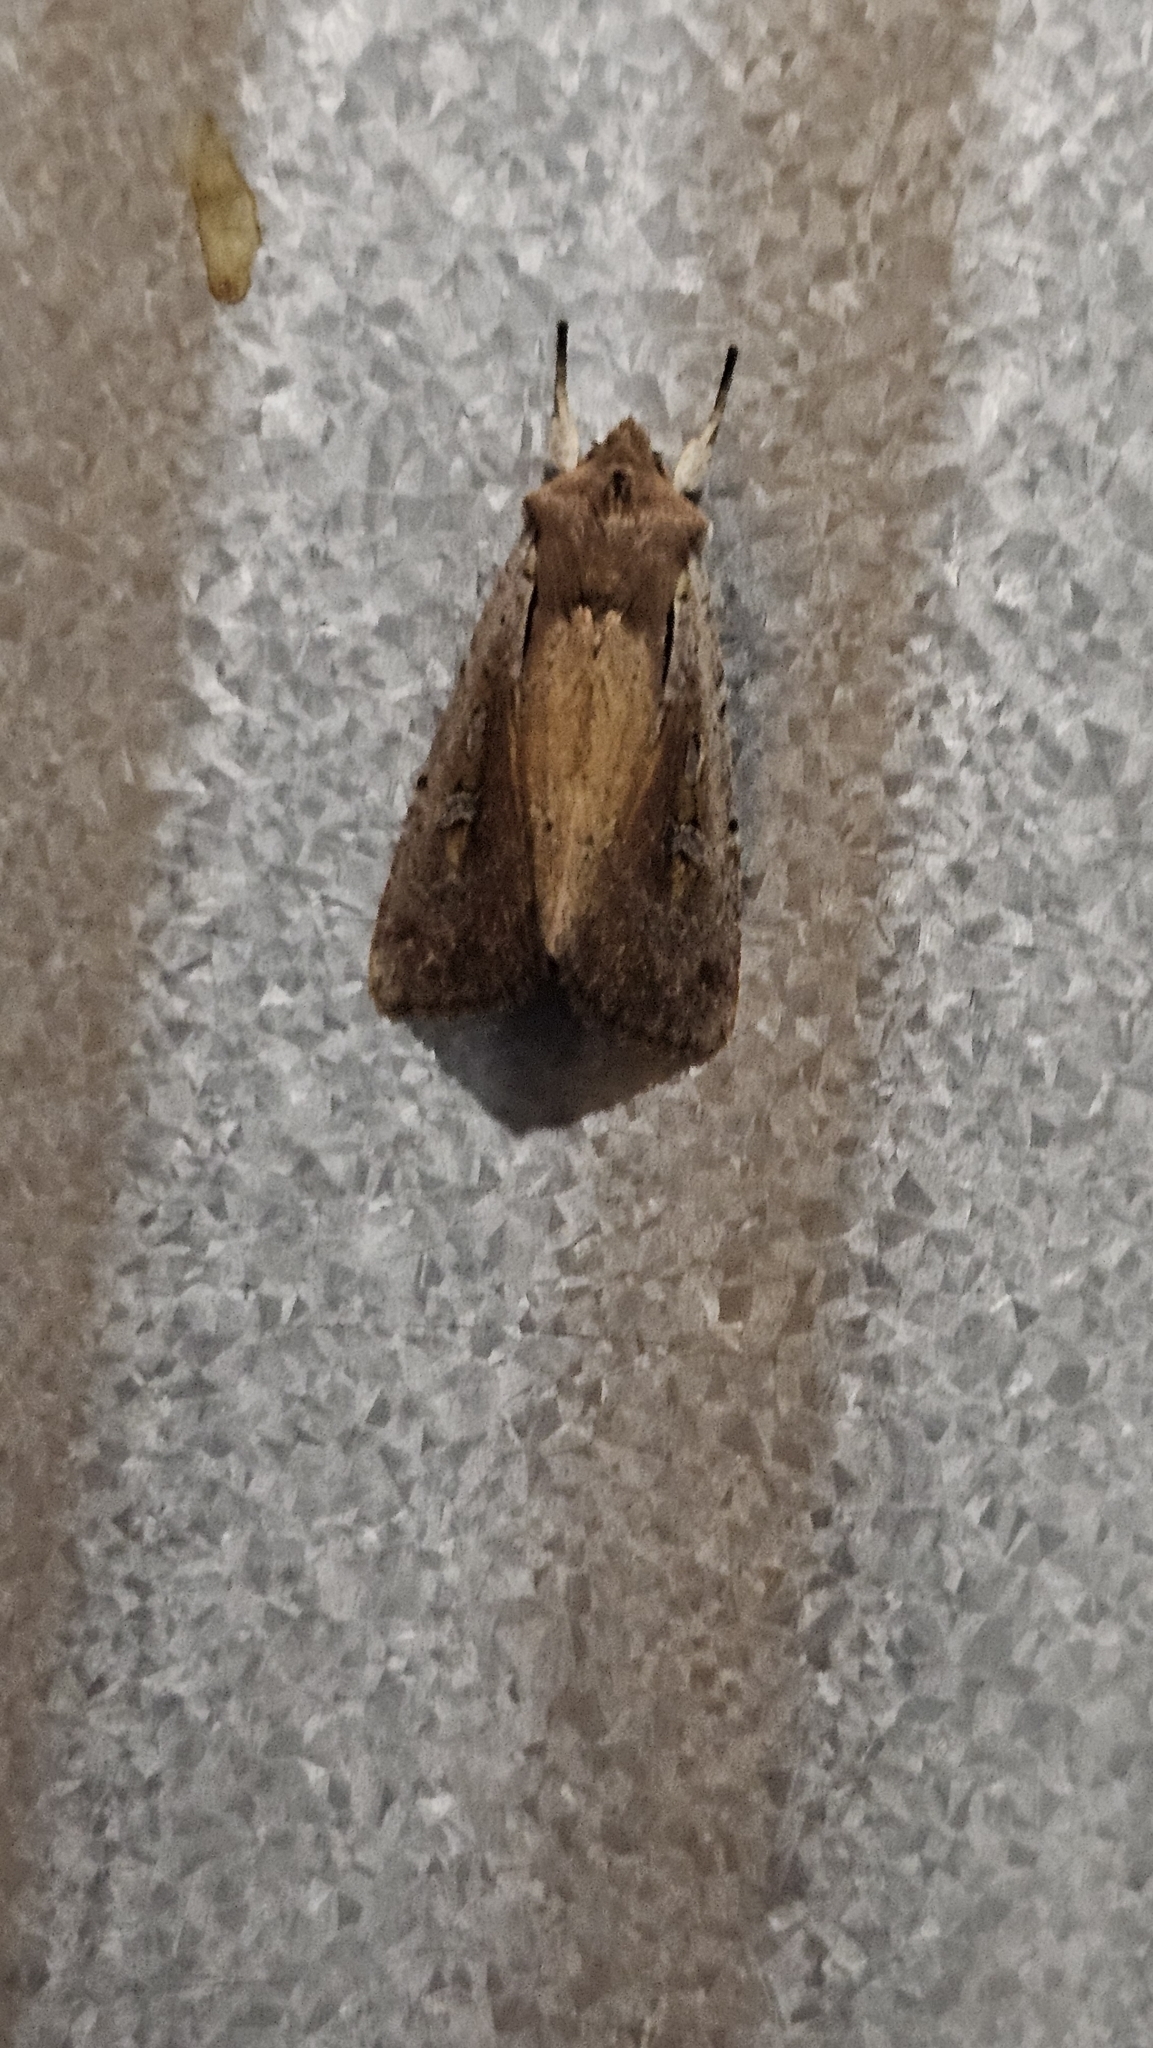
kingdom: Animalia
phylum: Arthropoda
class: Insecta
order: Lepidoptera
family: Noctuidae
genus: Ichneutica
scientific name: Ichneutica atristriga
